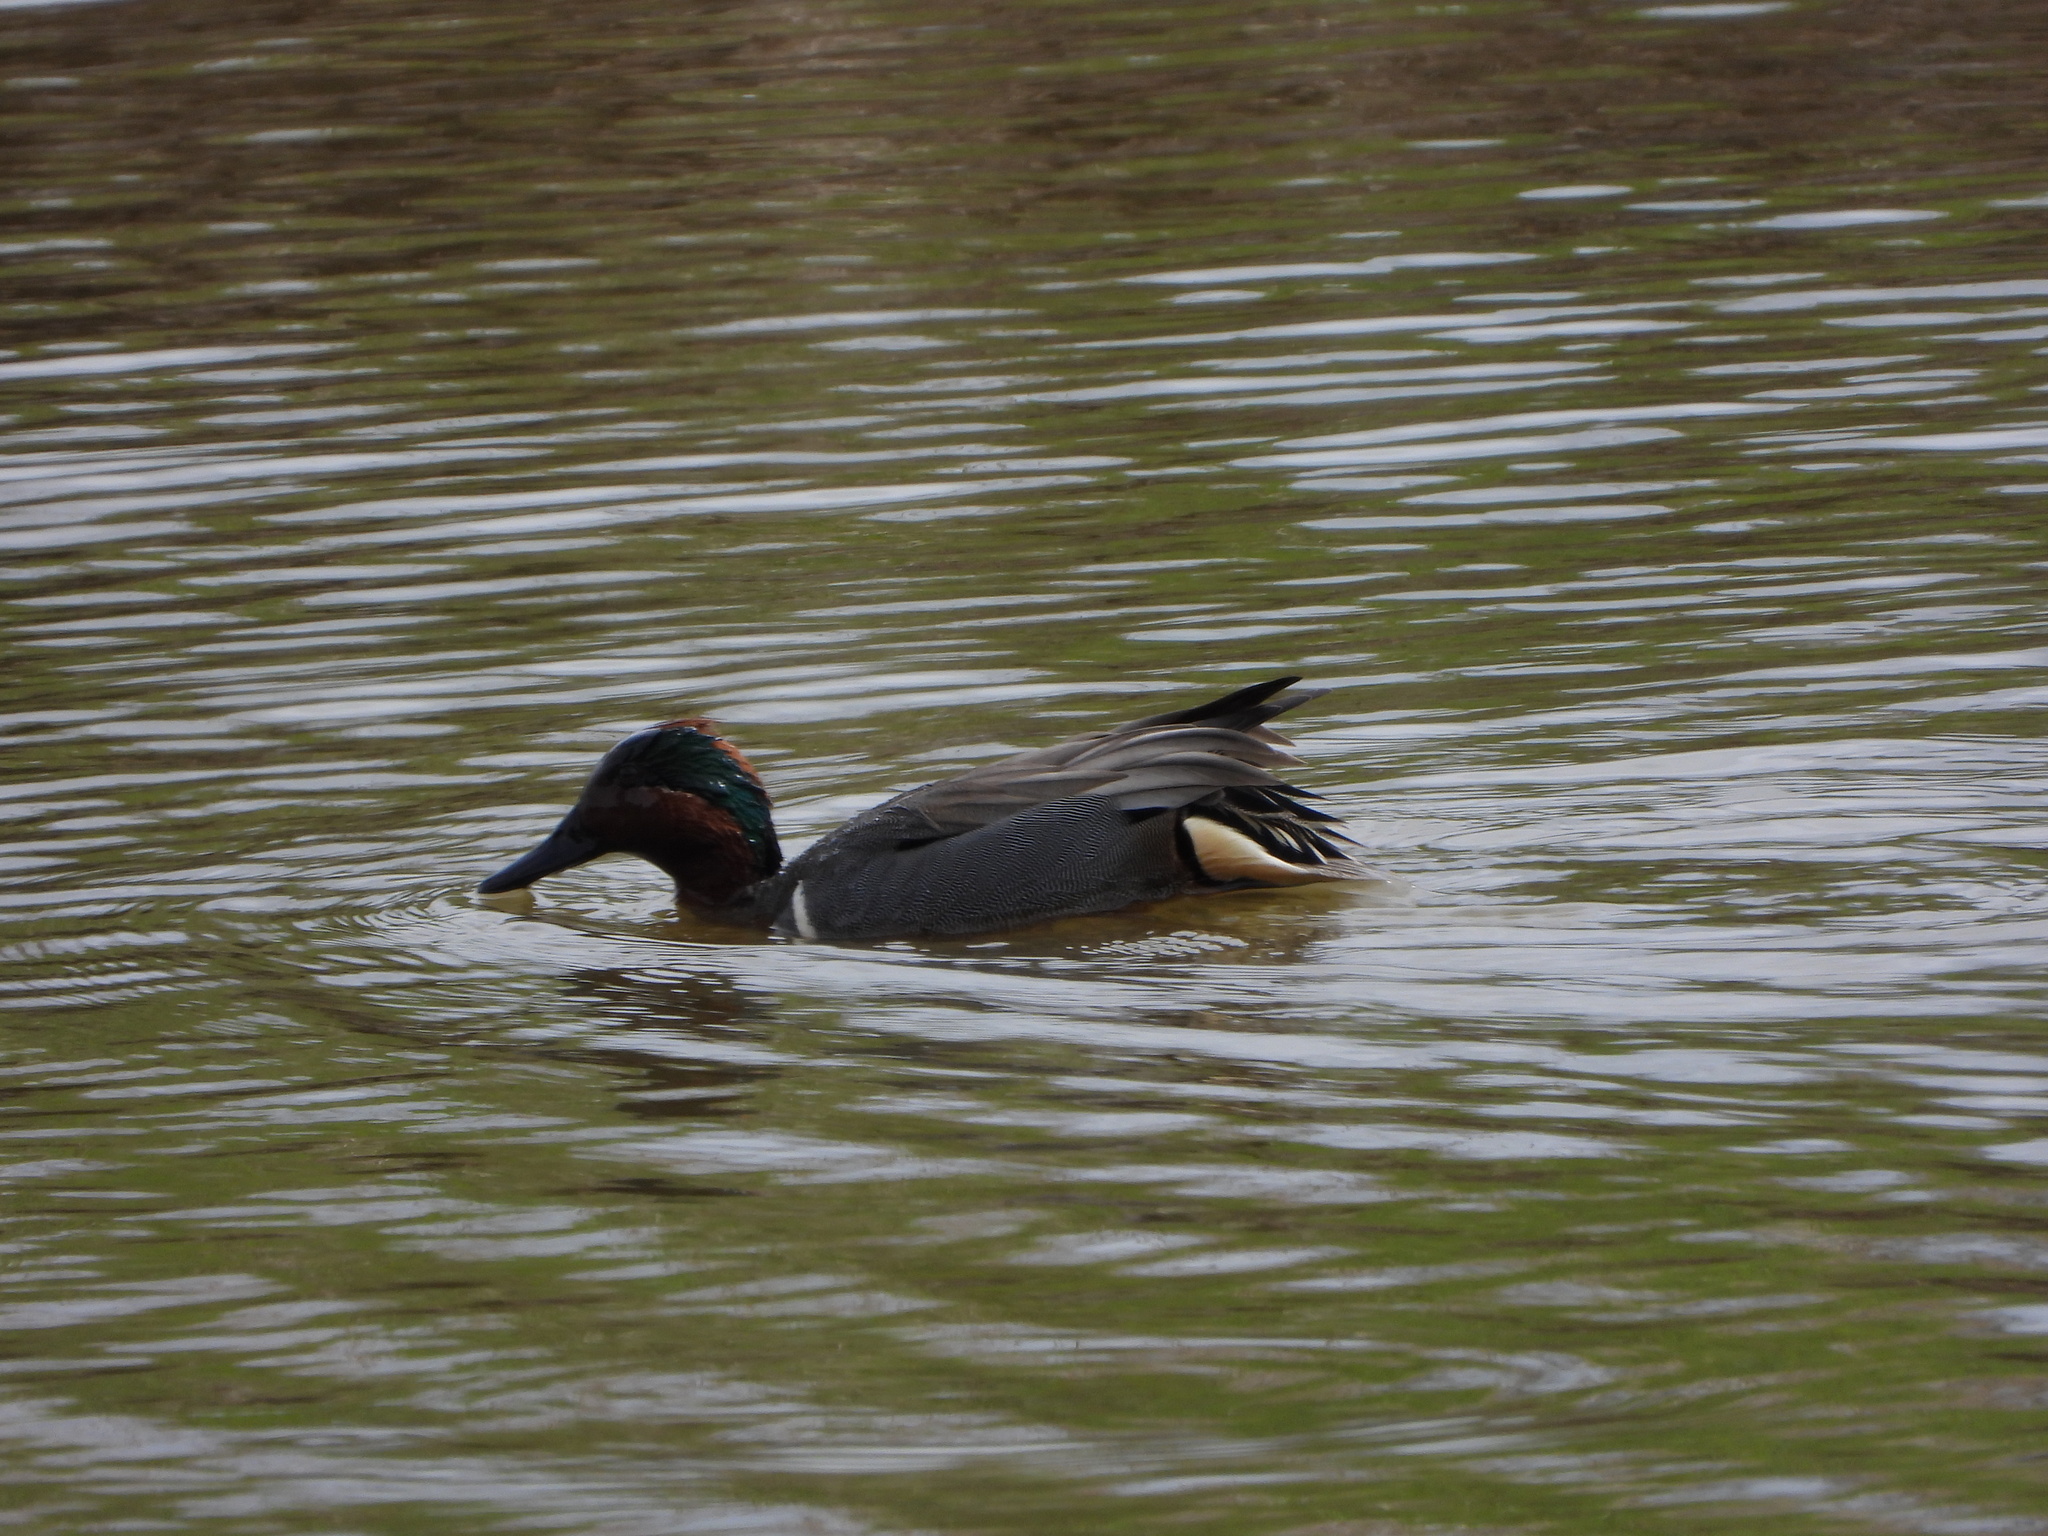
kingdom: Animalia
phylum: Chordata
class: Aves
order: Anseriformes
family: Anatidae
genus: Anas
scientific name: Anas carolinensis
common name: Green-winged teal
